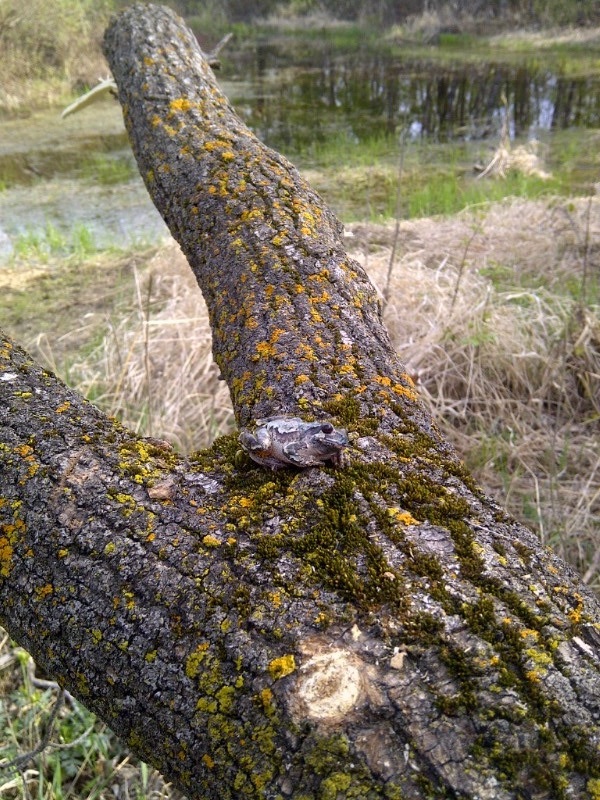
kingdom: Animalia
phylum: Chordata
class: Amphibia
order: Anura
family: Hylidae
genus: Dryophytes
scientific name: Dryophytes versicolor
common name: Gray treefrog
